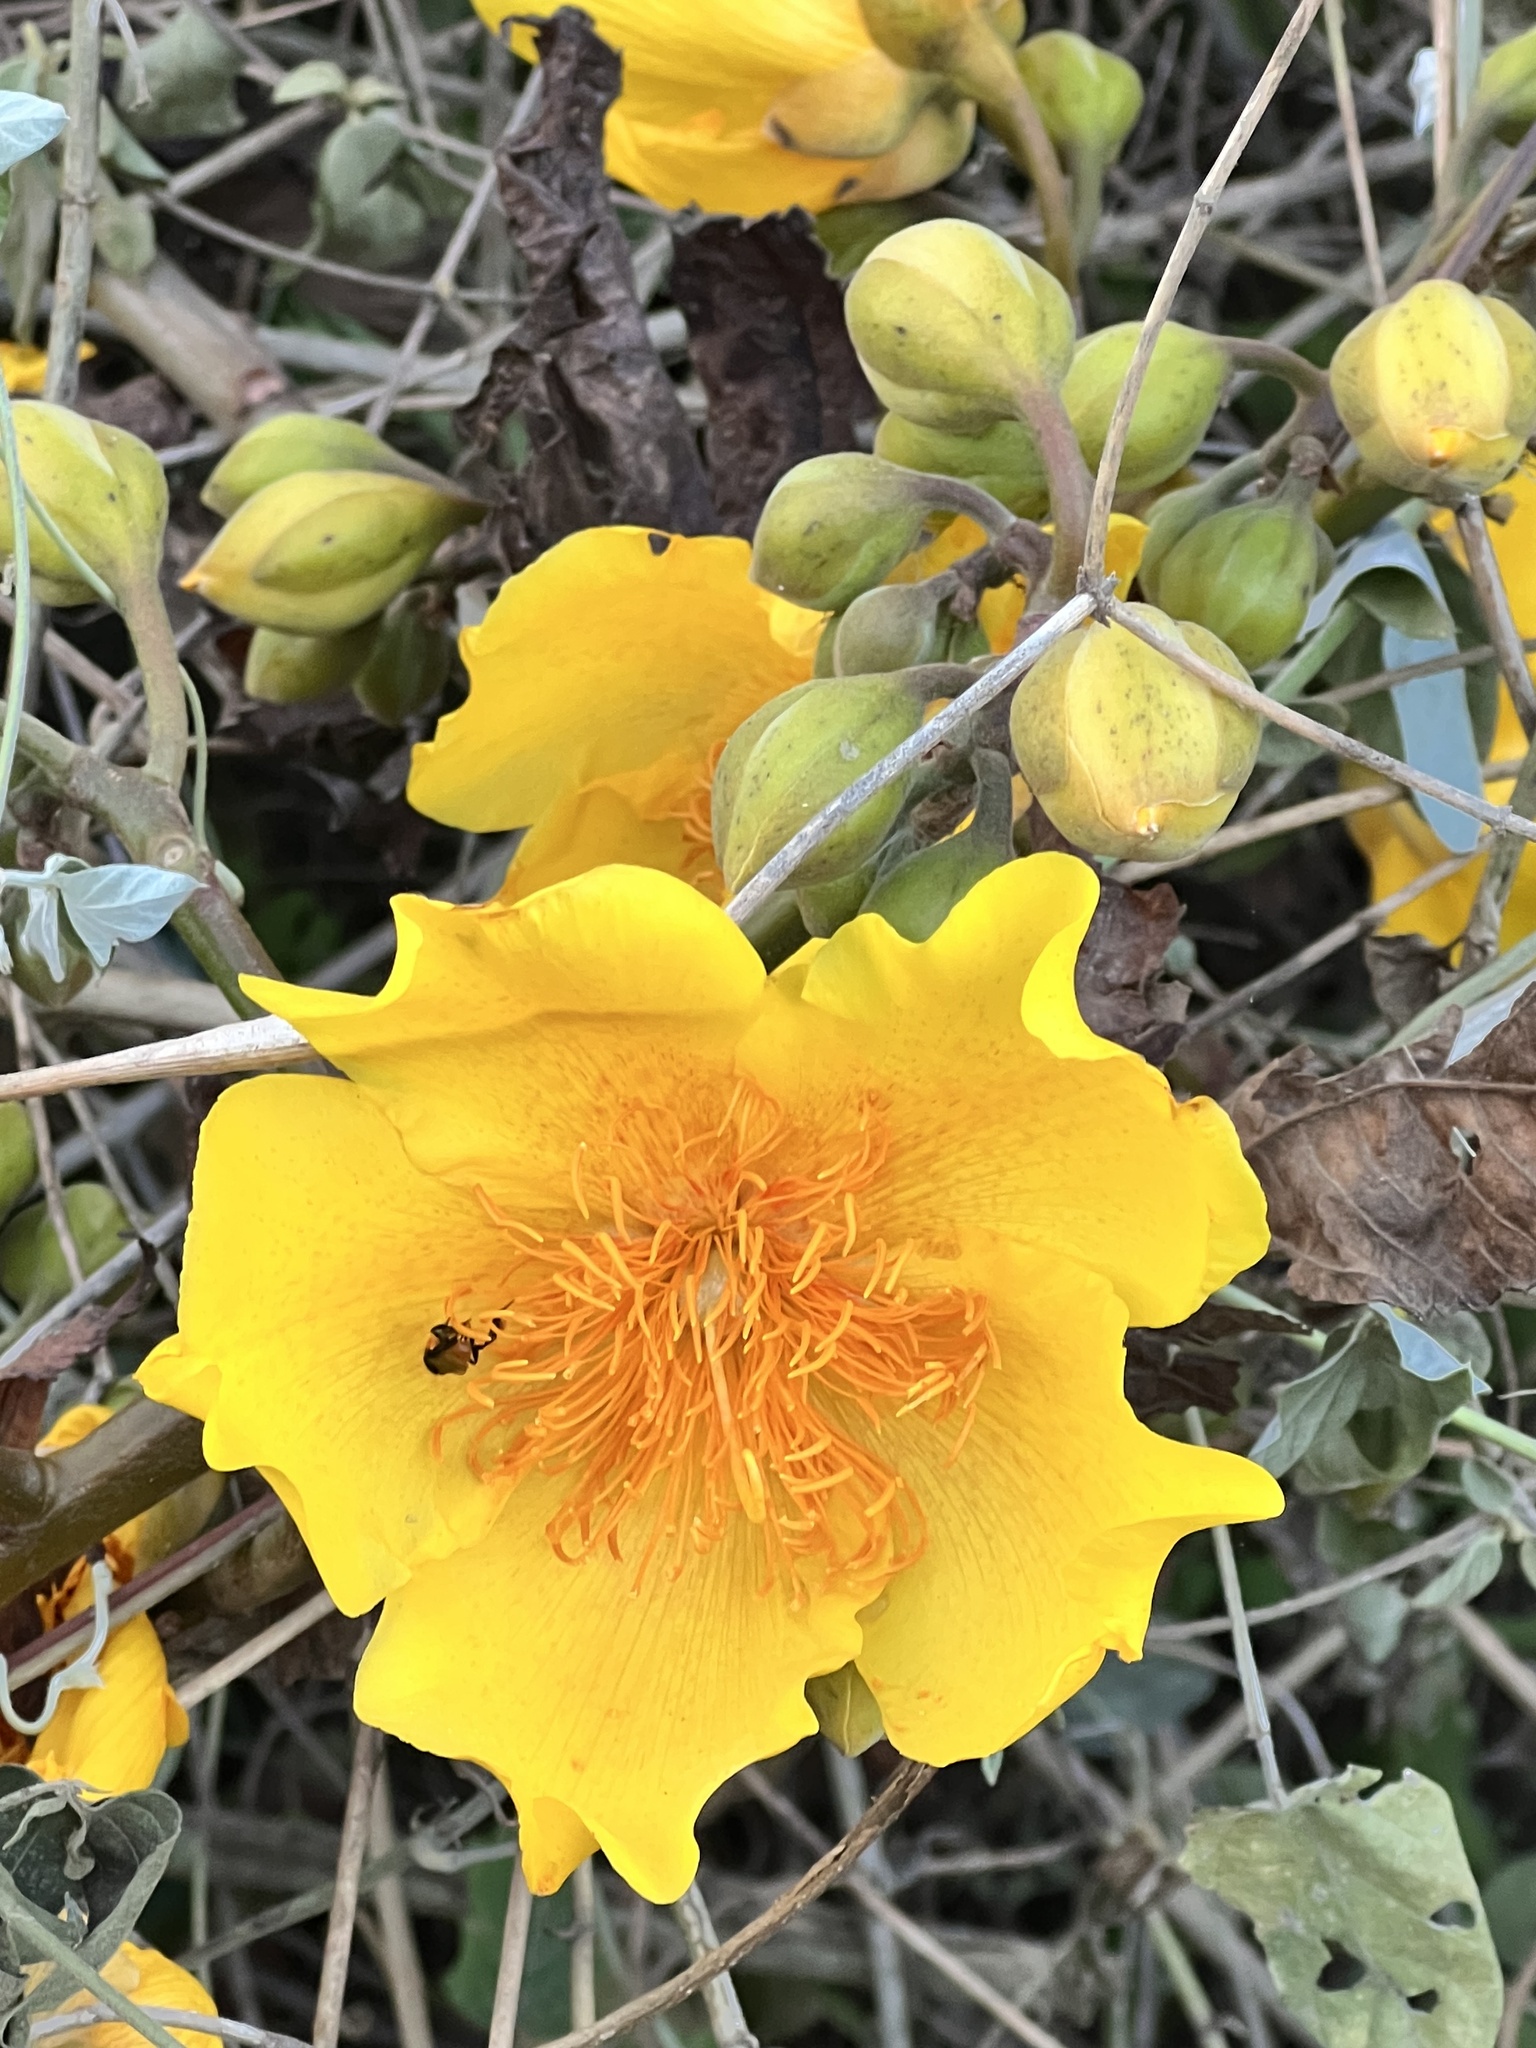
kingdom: Plantae
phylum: Tracheophyta
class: Magnoliopsida
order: Malvales
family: Cochlospermaceae
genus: Cochlospermum
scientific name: Cochlospermum vitifolium
